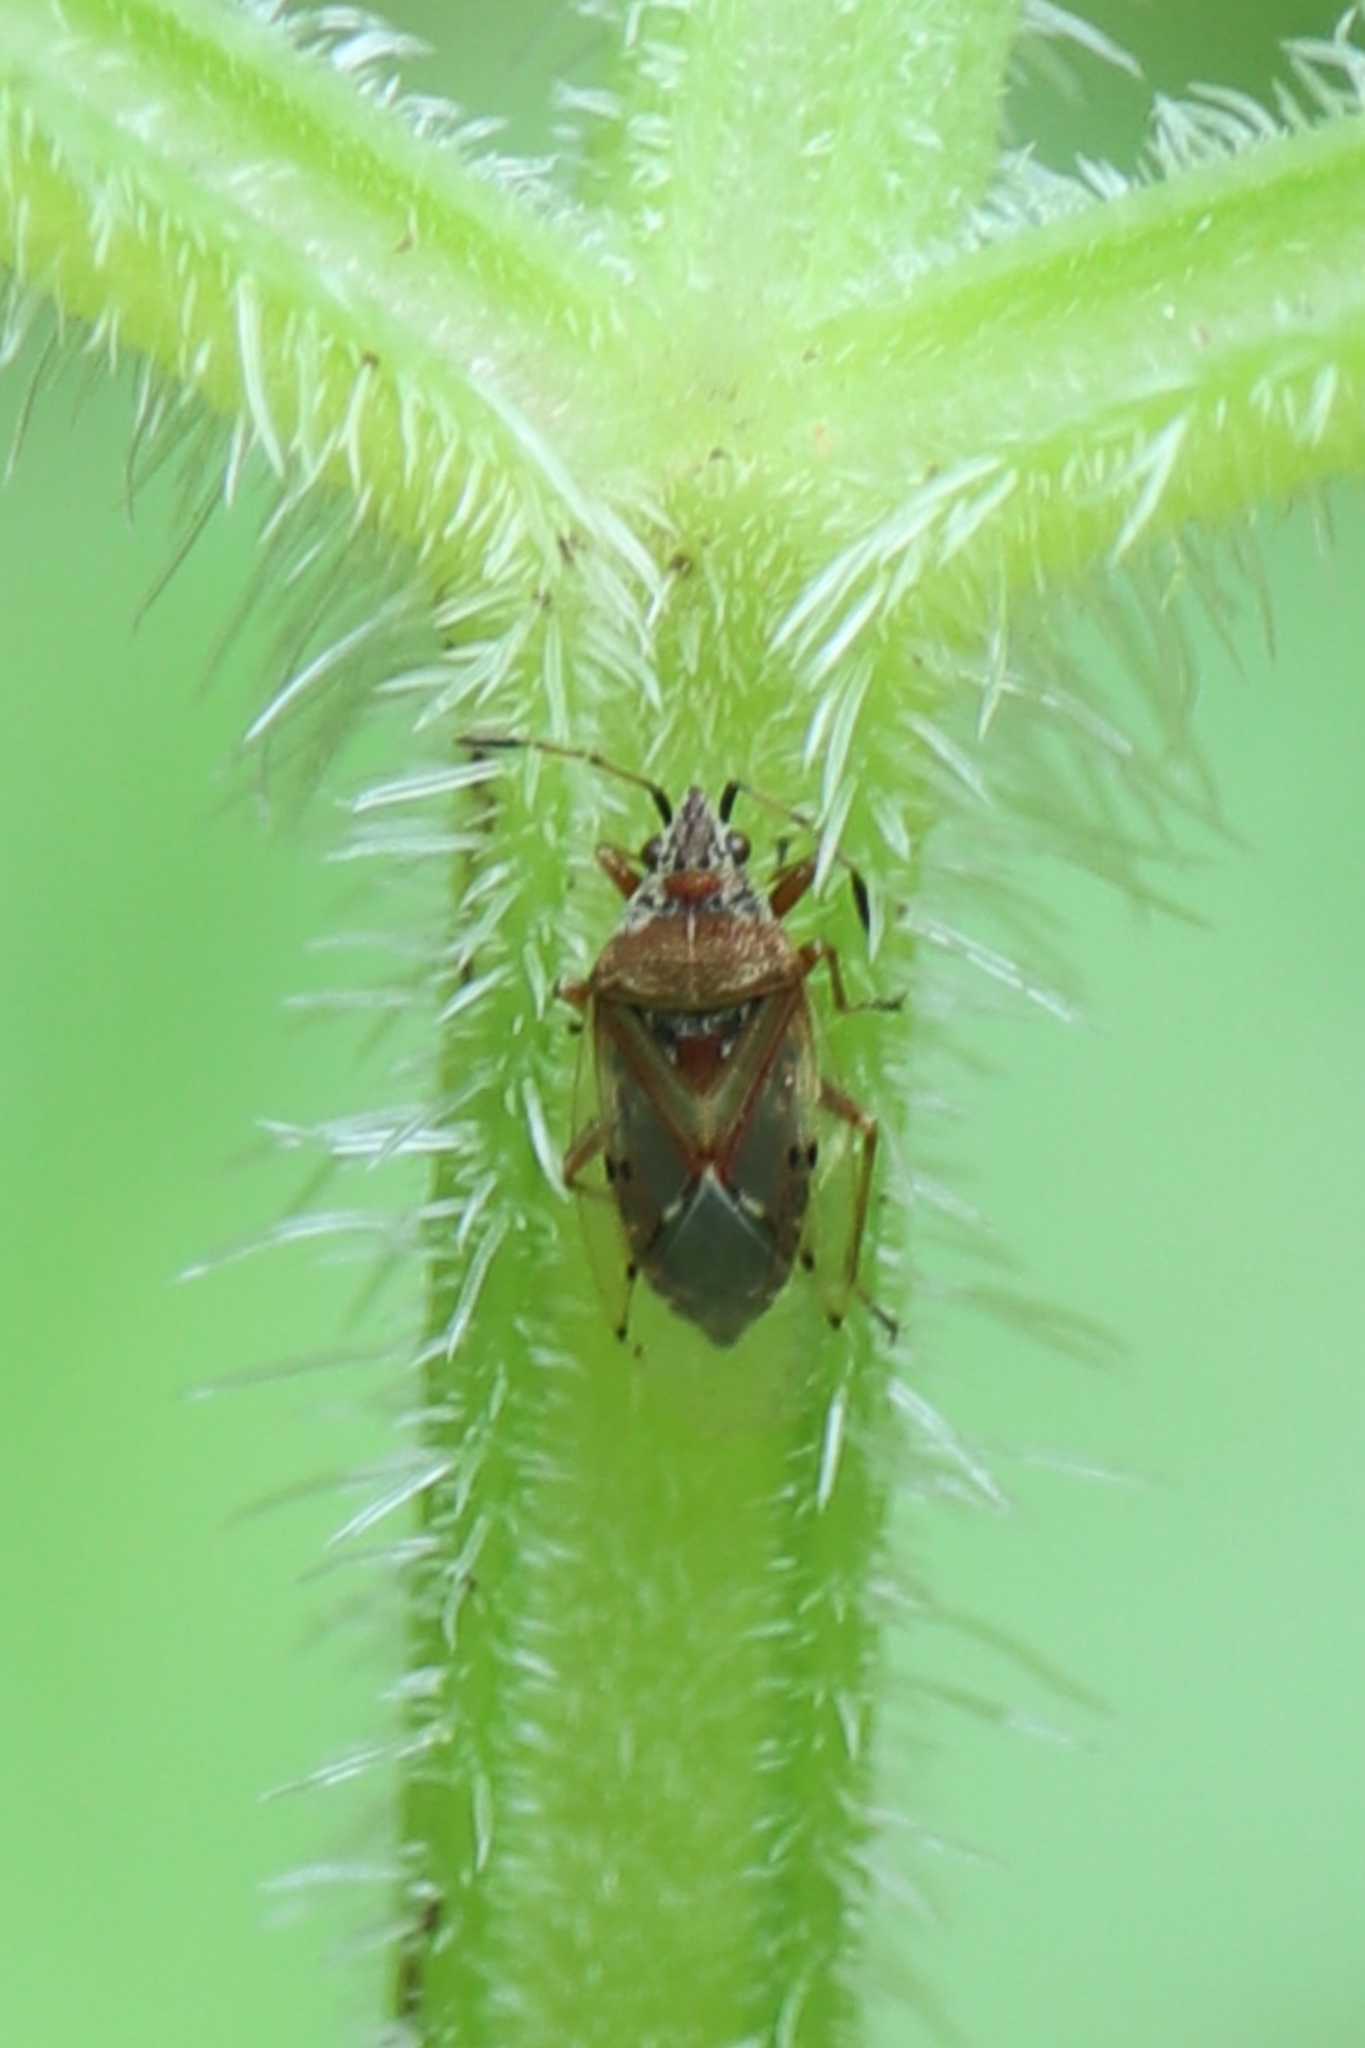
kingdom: Animalia
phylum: Arthropoda
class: Insecta
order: Hemiptera
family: Lygaeidae
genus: Kleidocerys
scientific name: Kleidocerys resedae
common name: Birch catkin bug
